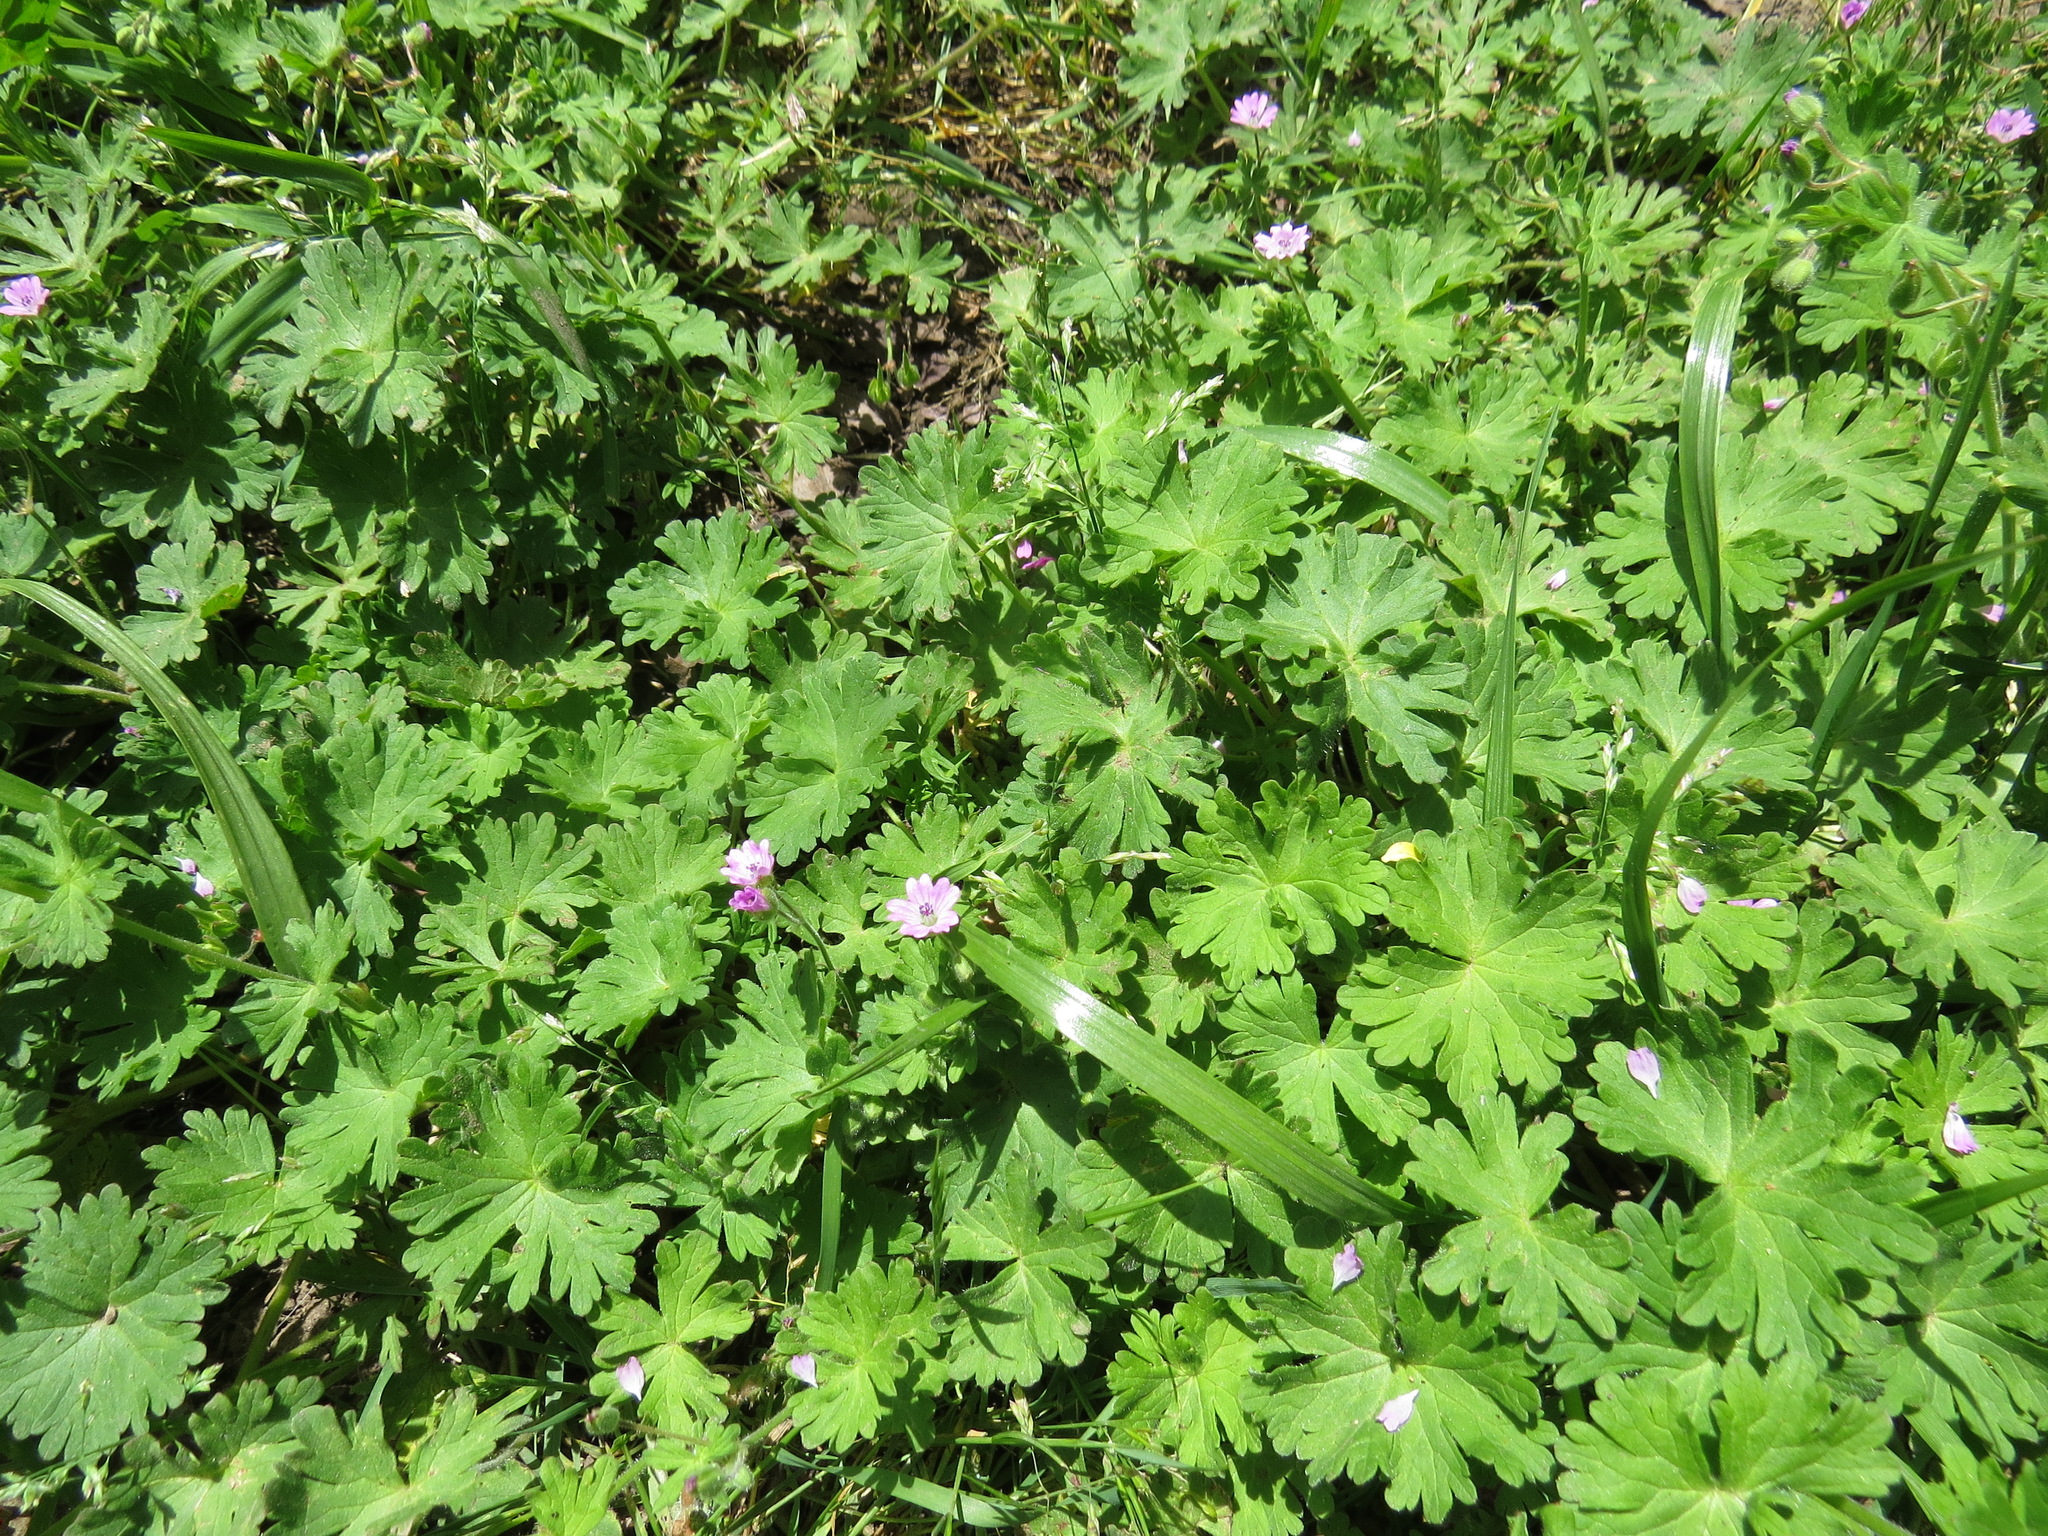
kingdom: Plantae
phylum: Tracheophyta
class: Magnoliopsida
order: Geraniales
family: Geraniaceae
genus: Geranium
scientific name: Geranium molle
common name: Dove's-foot crane's-bill
